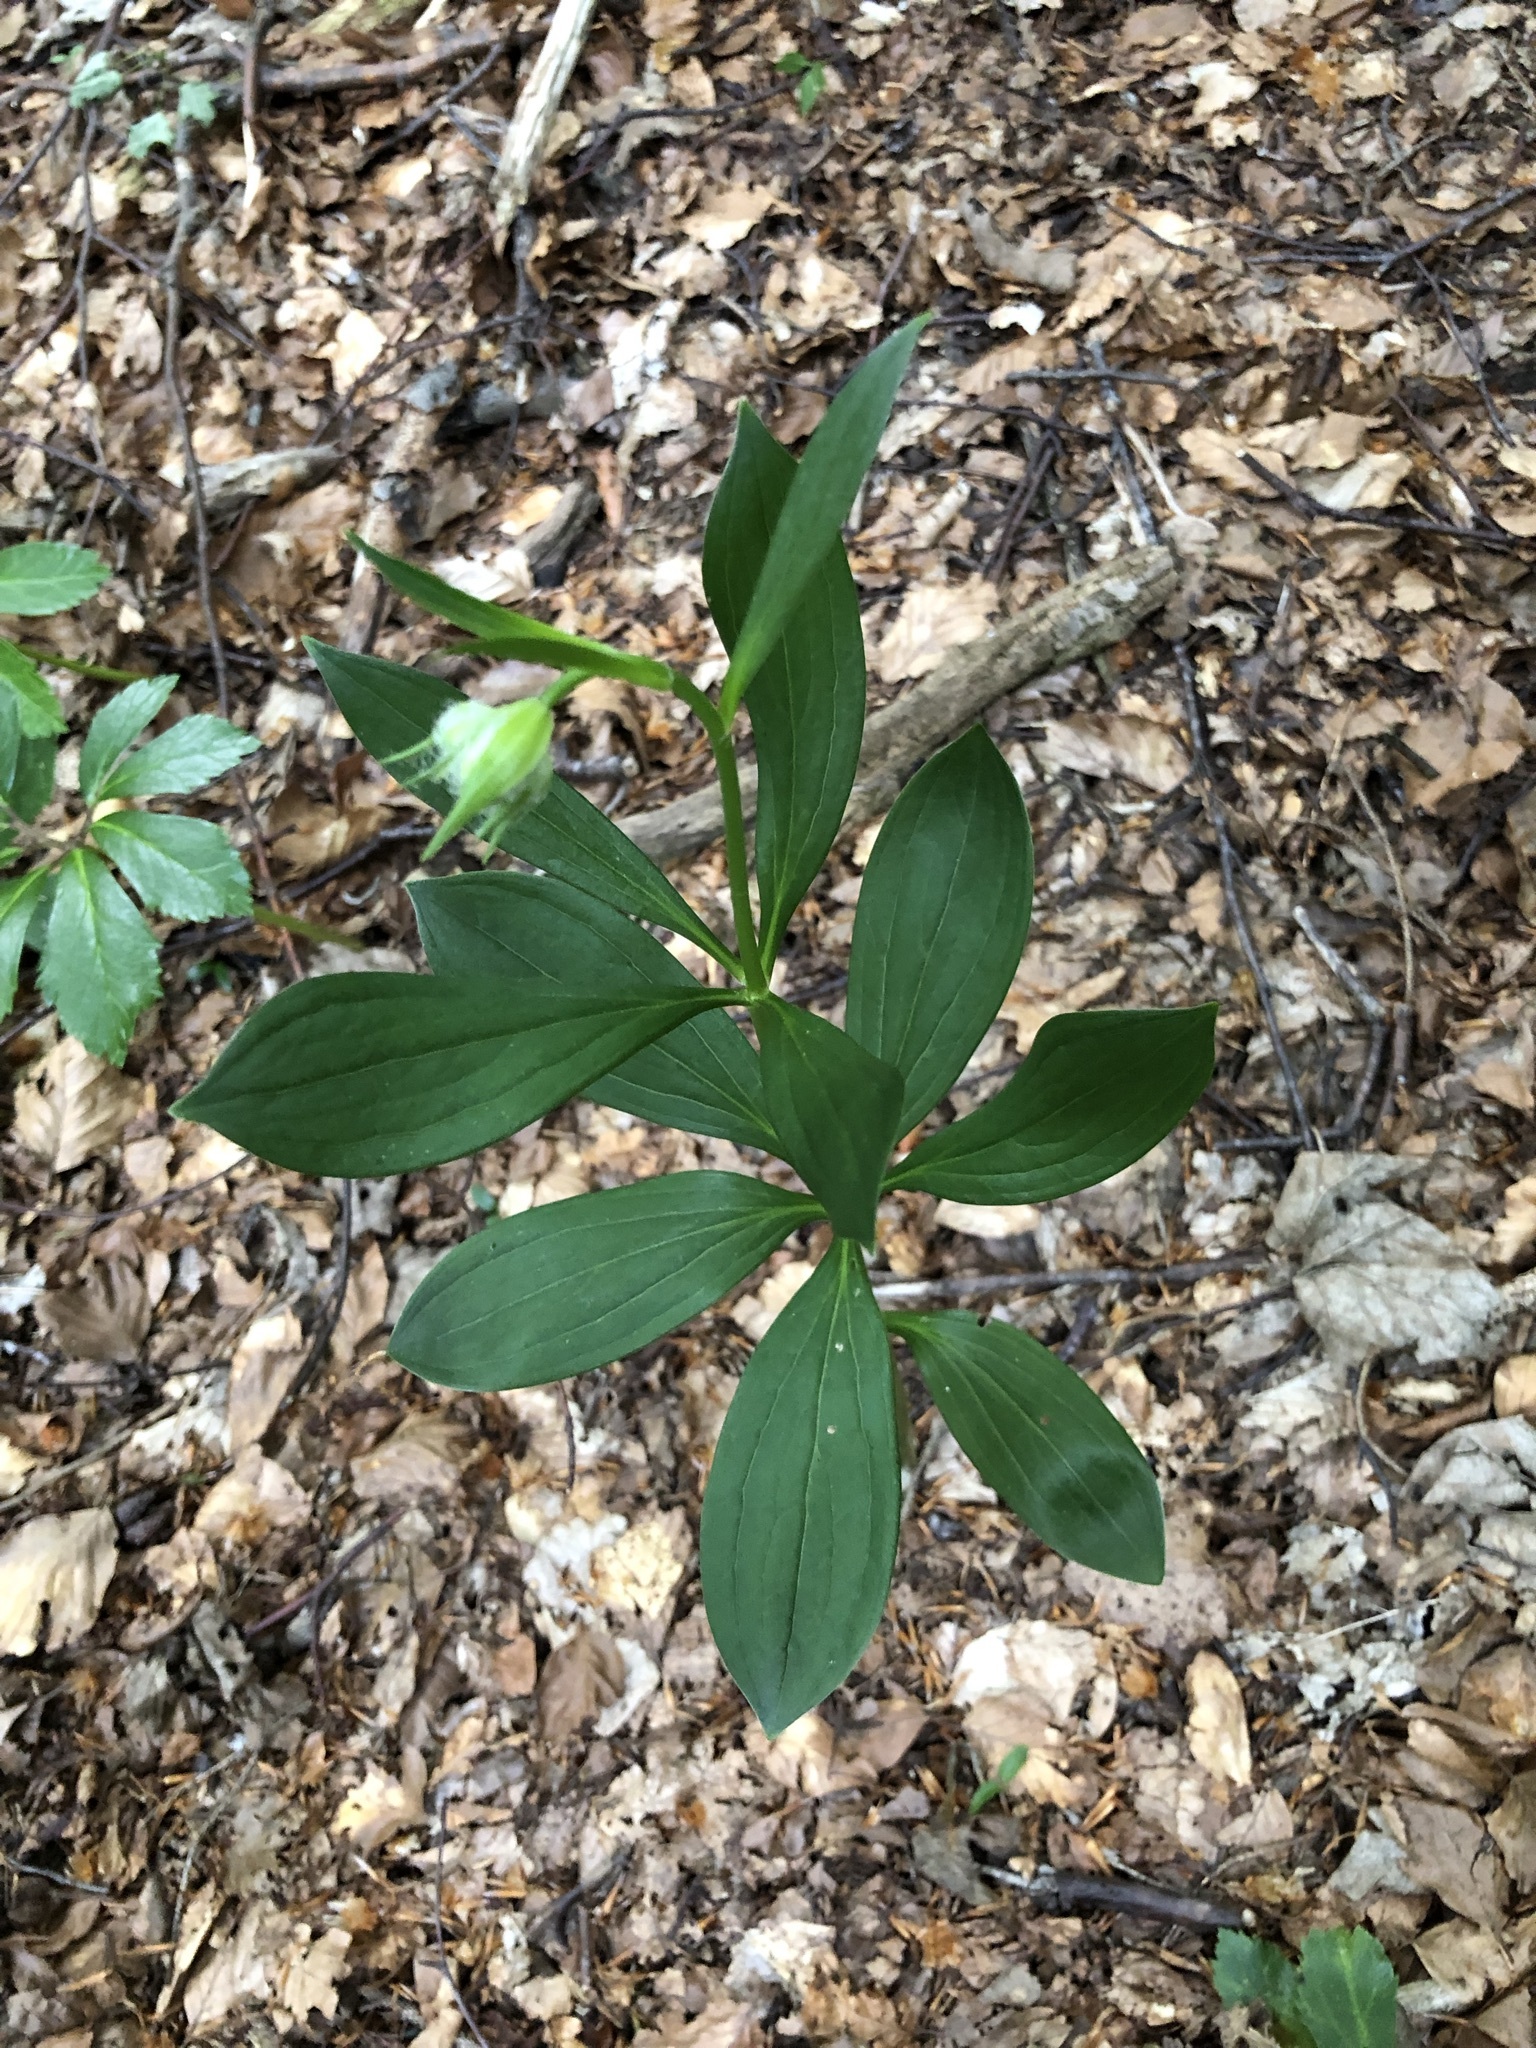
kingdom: Plantae
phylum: Tracheophyta
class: Liliopsida
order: Liliales
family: Liliaceae
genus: Lilium
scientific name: Lilium martagon
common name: Martagon lily
